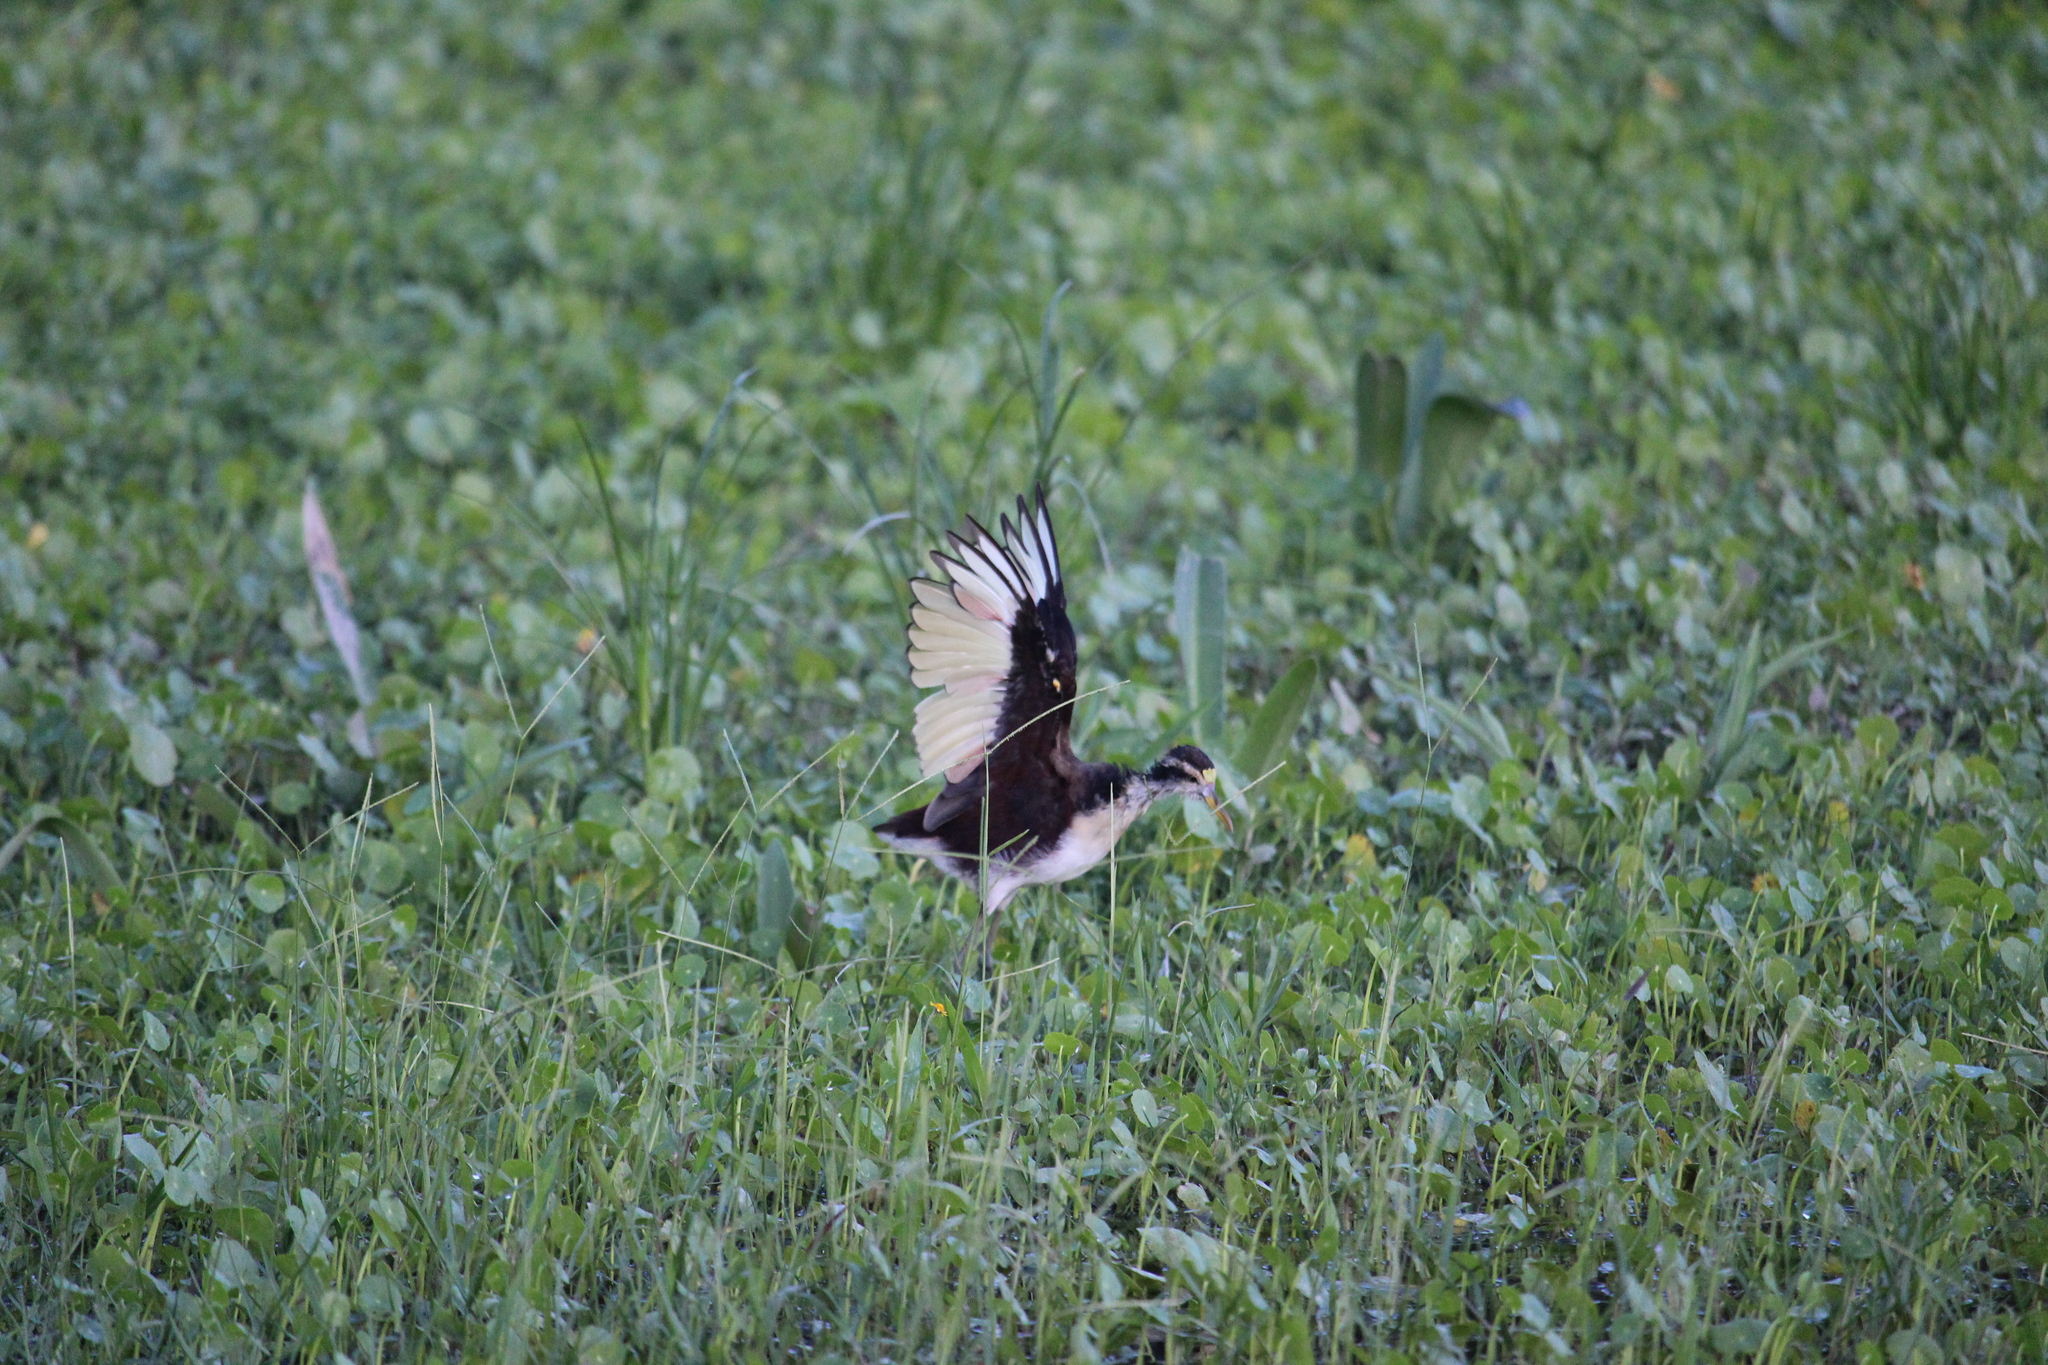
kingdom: Animalia
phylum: Chordata
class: Aves
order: Charadriiformes
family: Jacanidae
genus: Jacana
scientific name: Jacana spinosa
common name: Northern jacana
